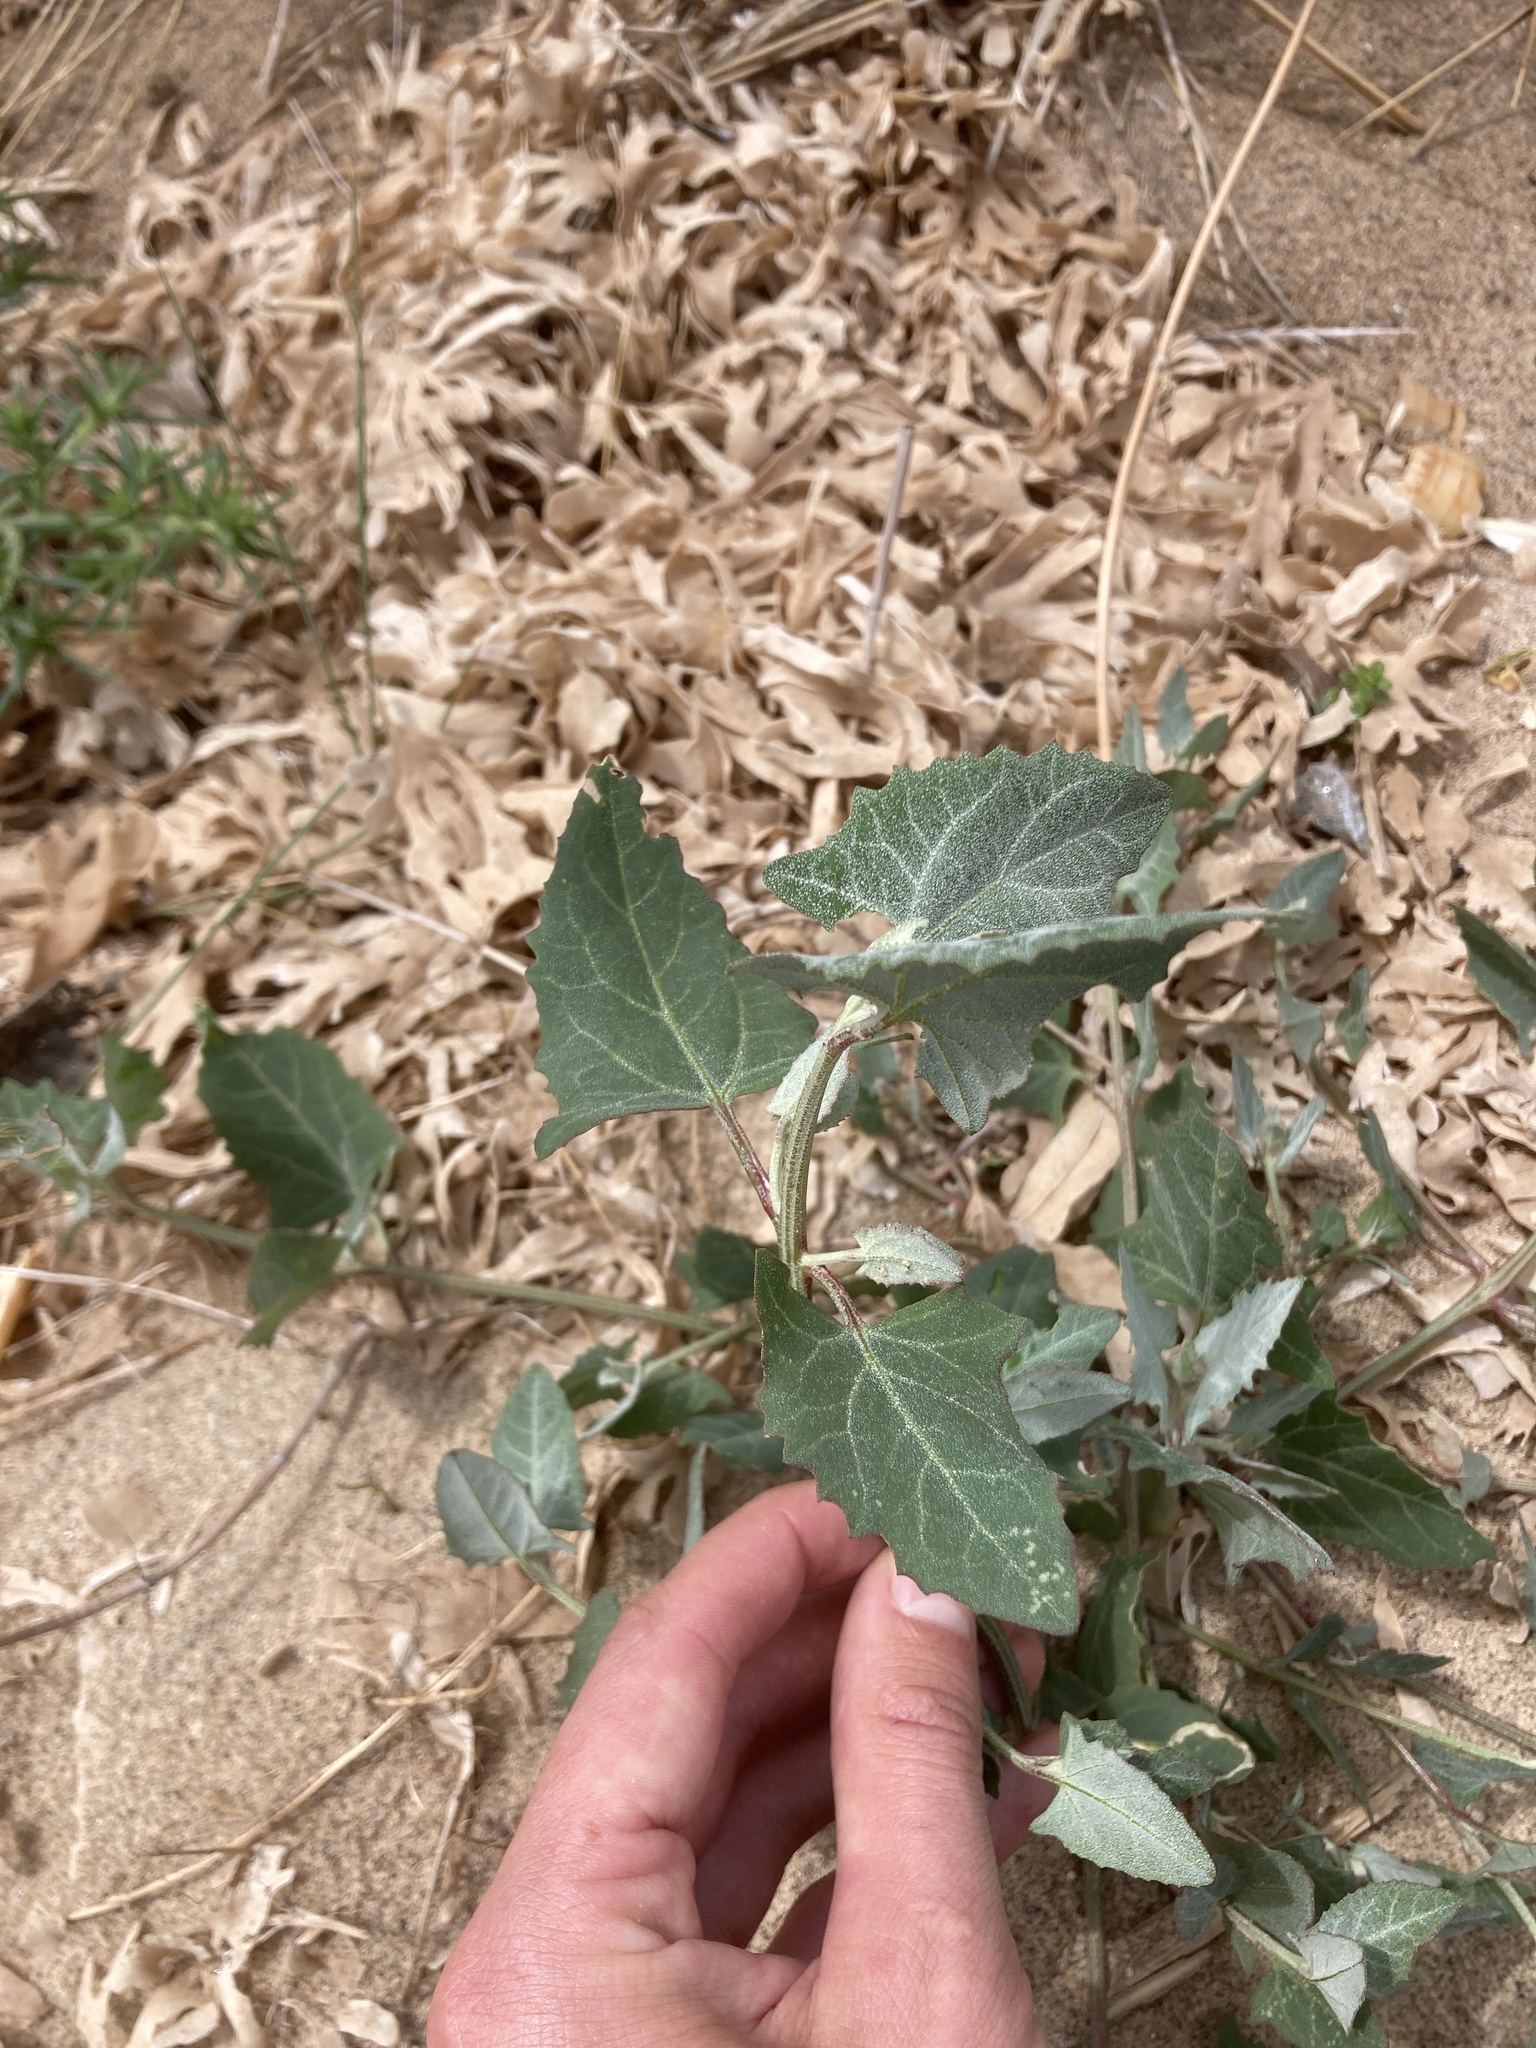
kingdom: Plantae
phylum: Tracheophyta
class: Magnoliopsida
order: Caryophyllales
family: Amaranthaceae
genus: Atriplex
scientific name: Atriplex prostrata
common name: Spear-leaved orache
